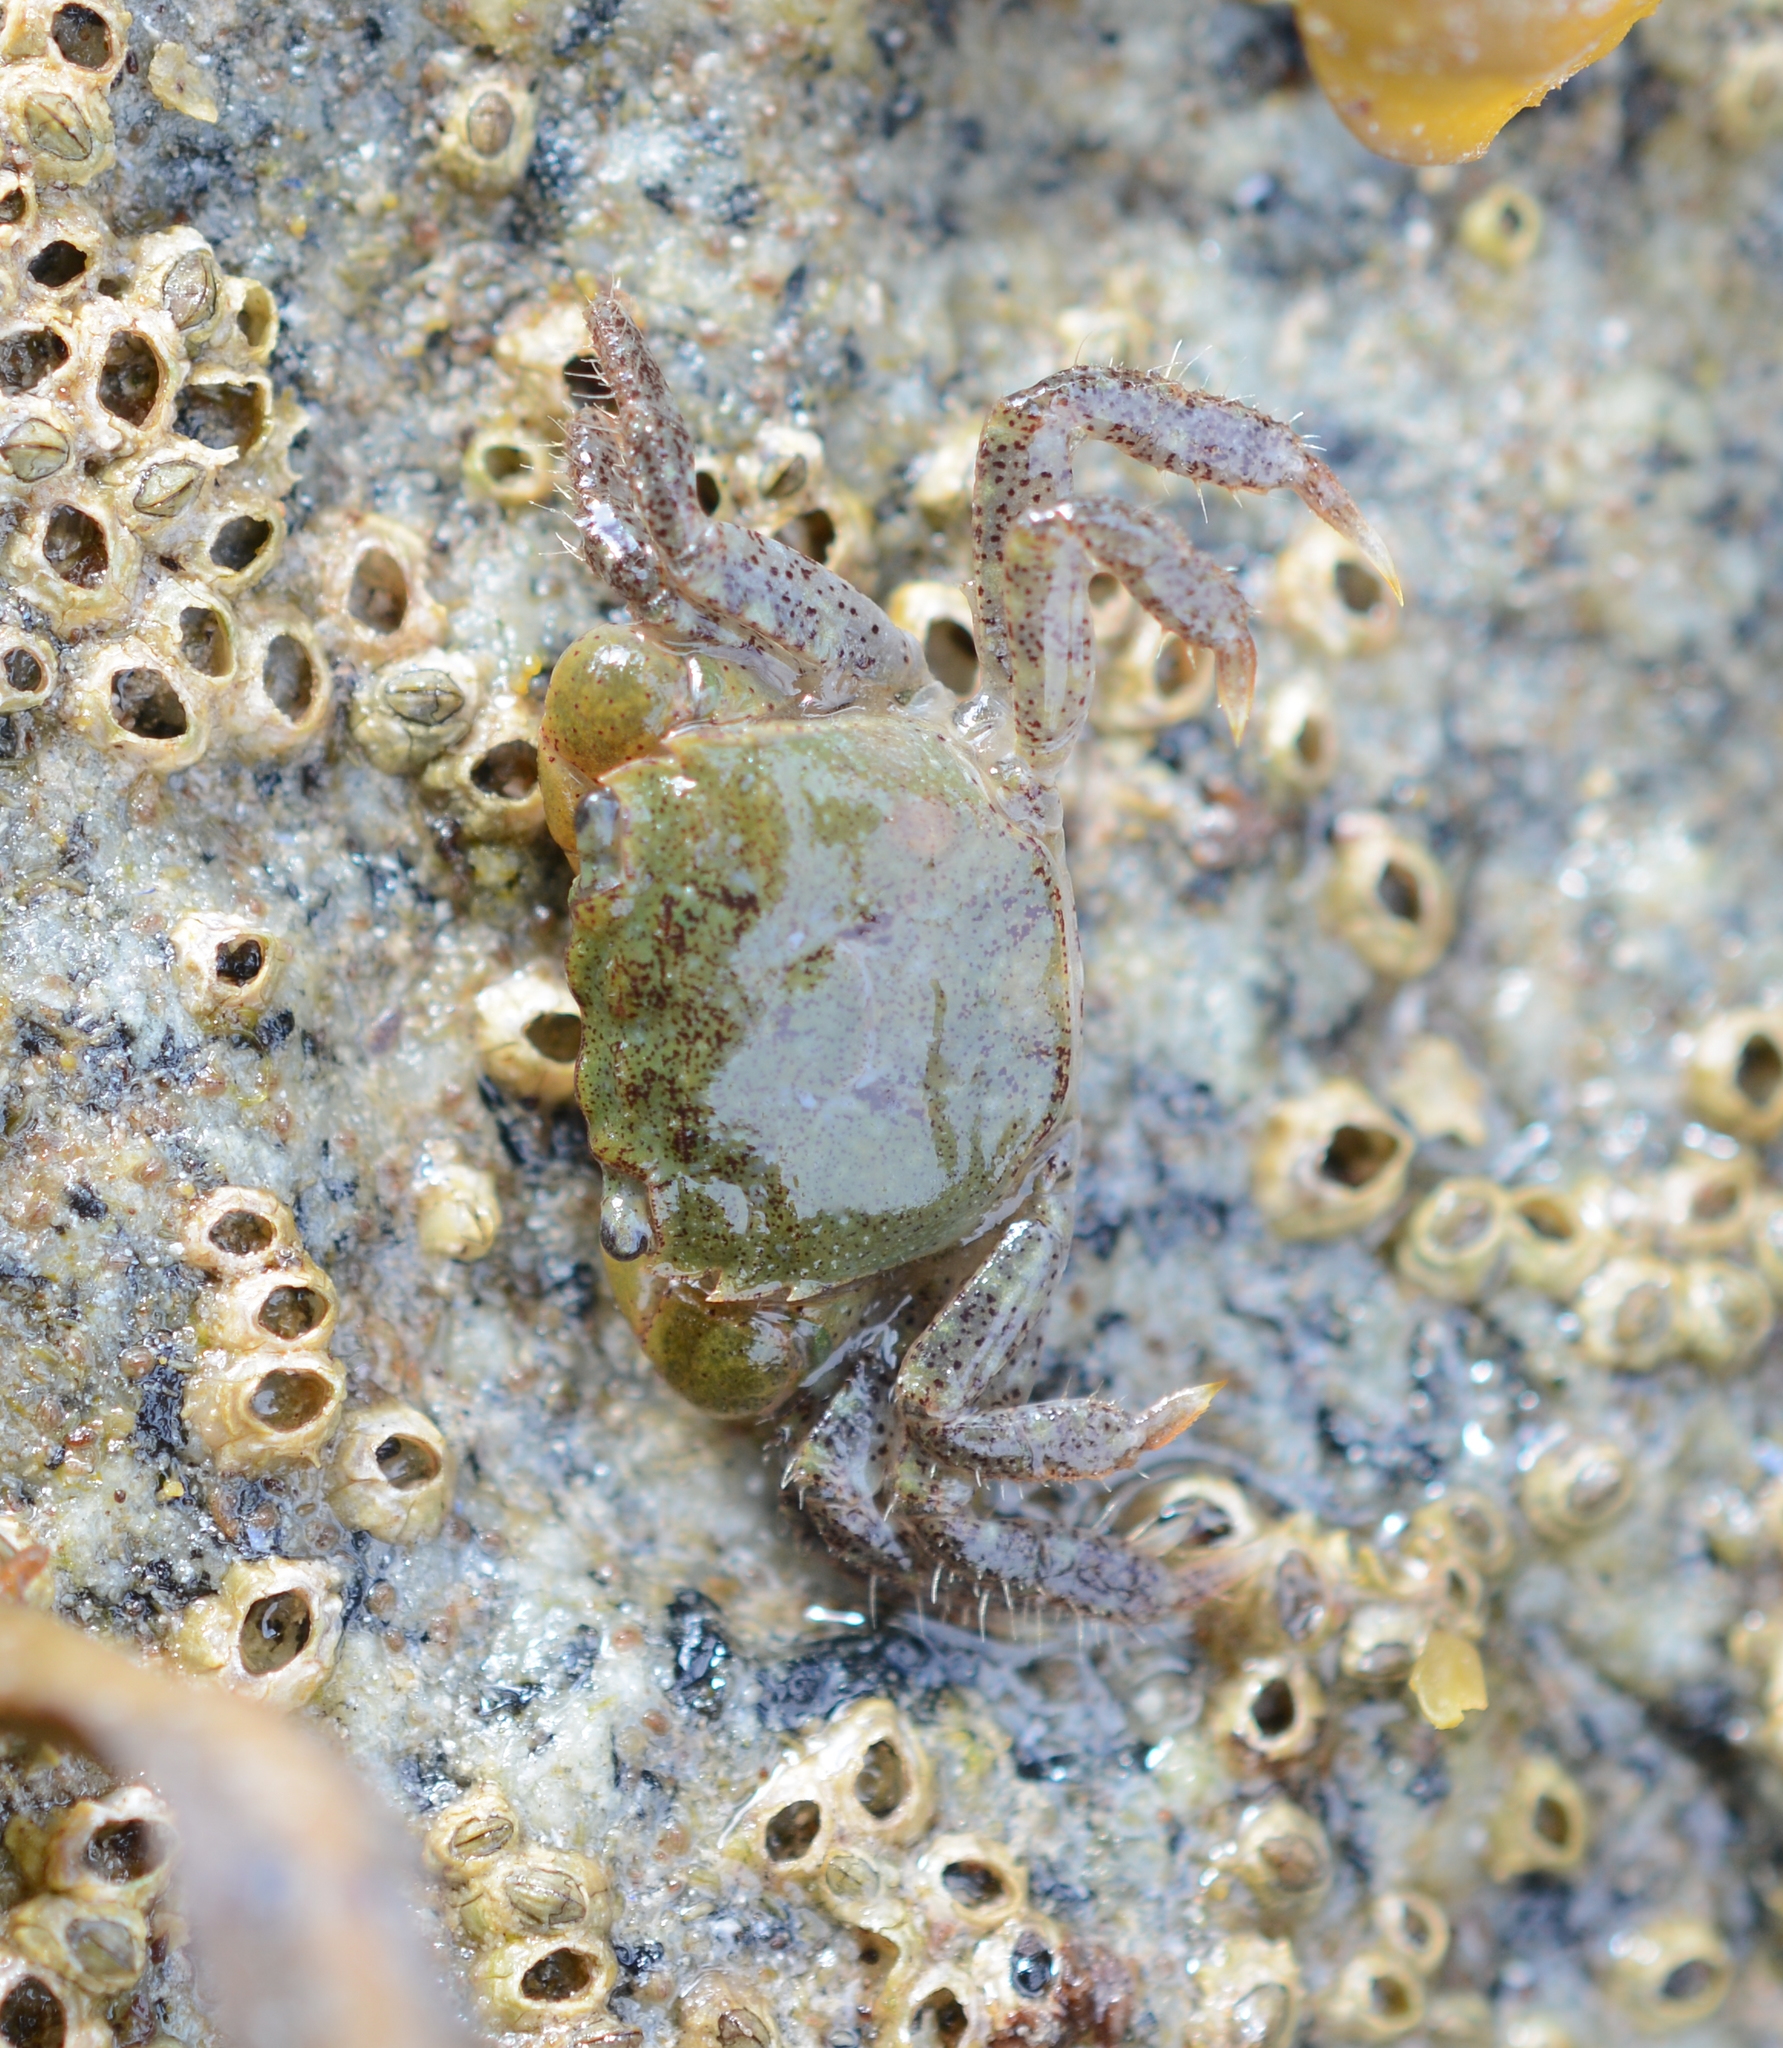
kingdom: Animalia
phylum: Arthropoda
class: Malacostraca
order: Decapoda
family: Varunidae
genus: Hemigrapsus
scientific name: Hemigrapsus oregonensis
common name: Yellow shore crab
